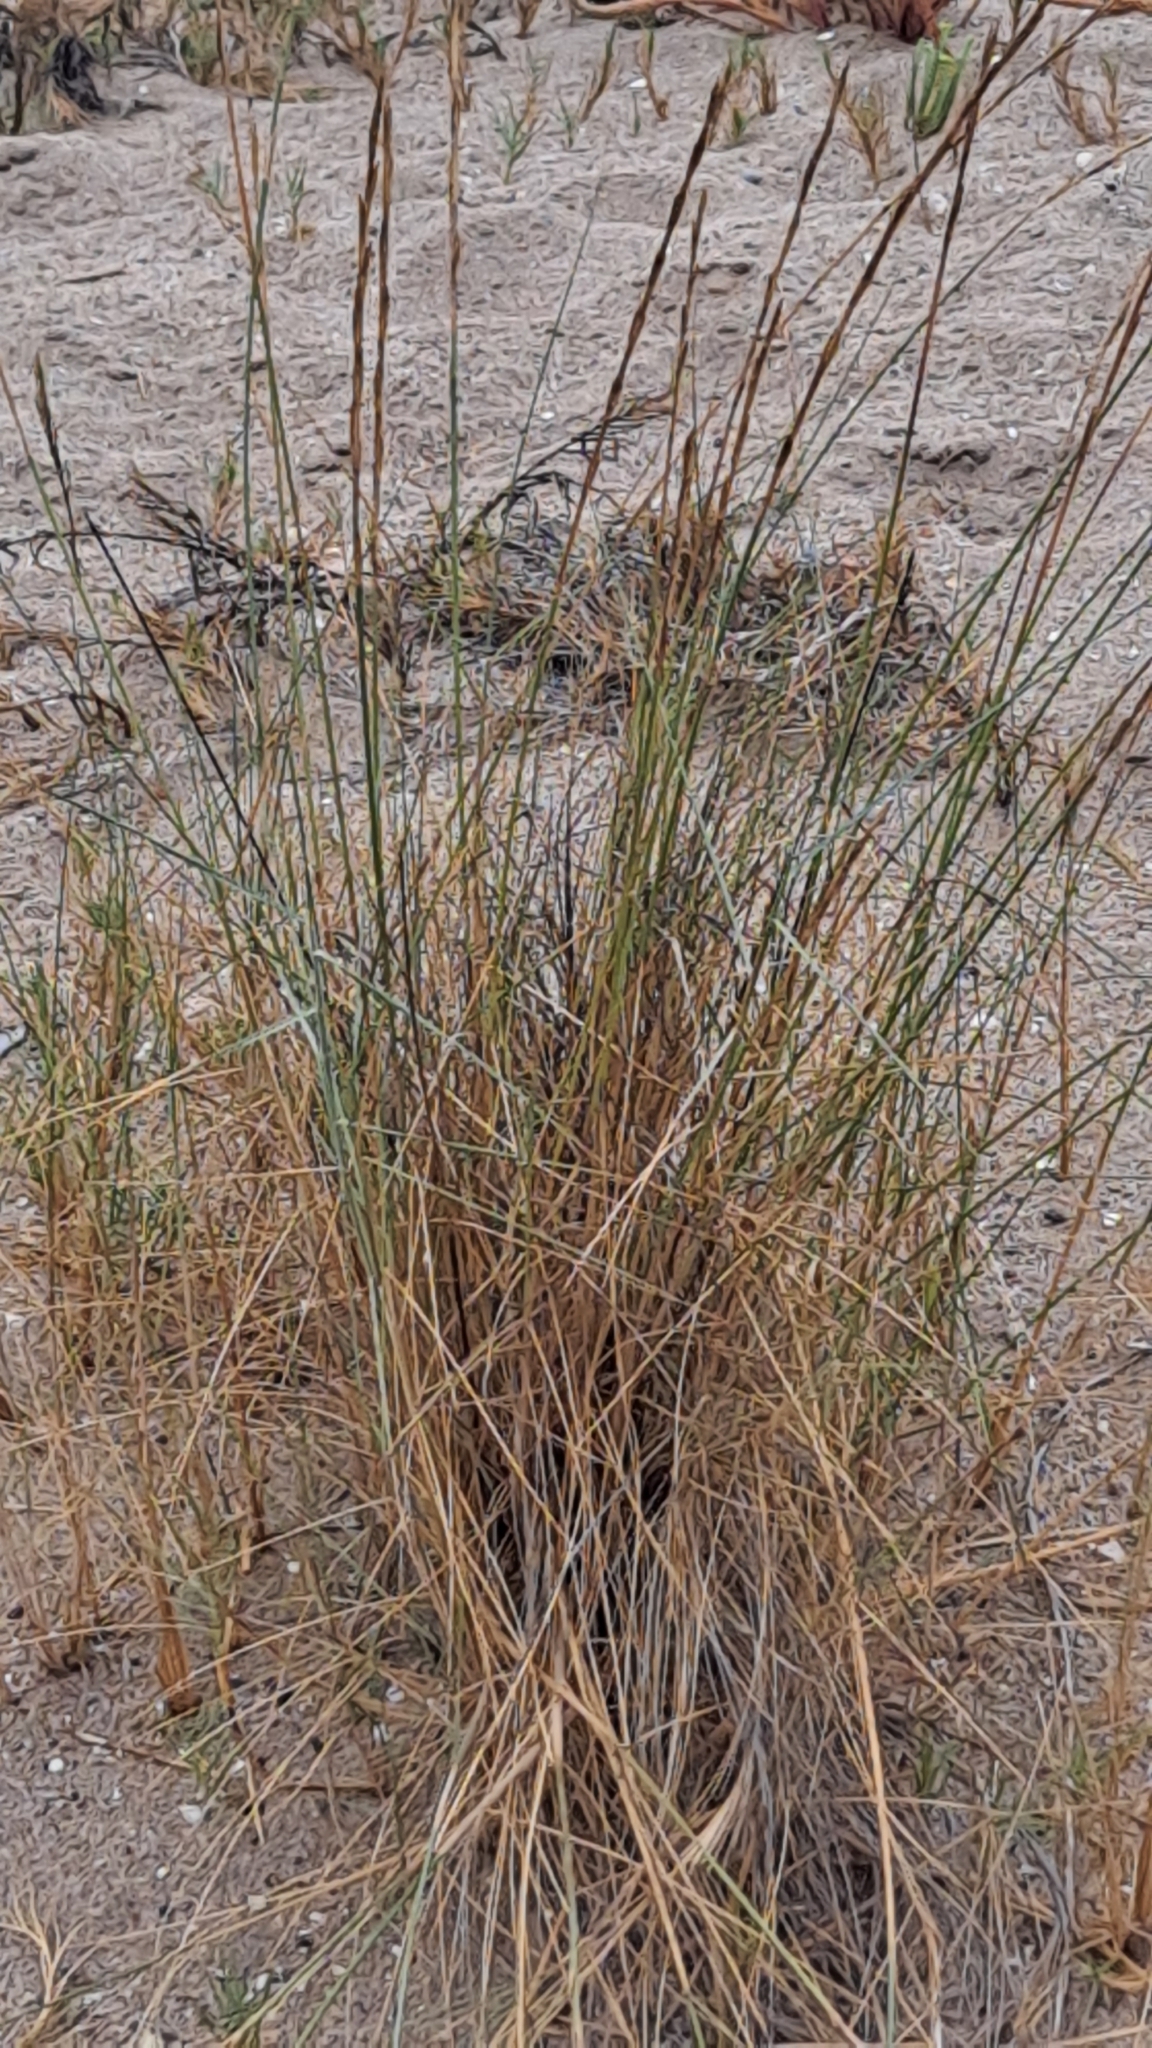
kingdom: Plantae
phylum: Tracheophyta
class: Liliopsida
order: Poales
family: Poaceae
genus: Thinopyrum
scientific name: Thinopyrum junceum
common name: Russian wheatgrass
